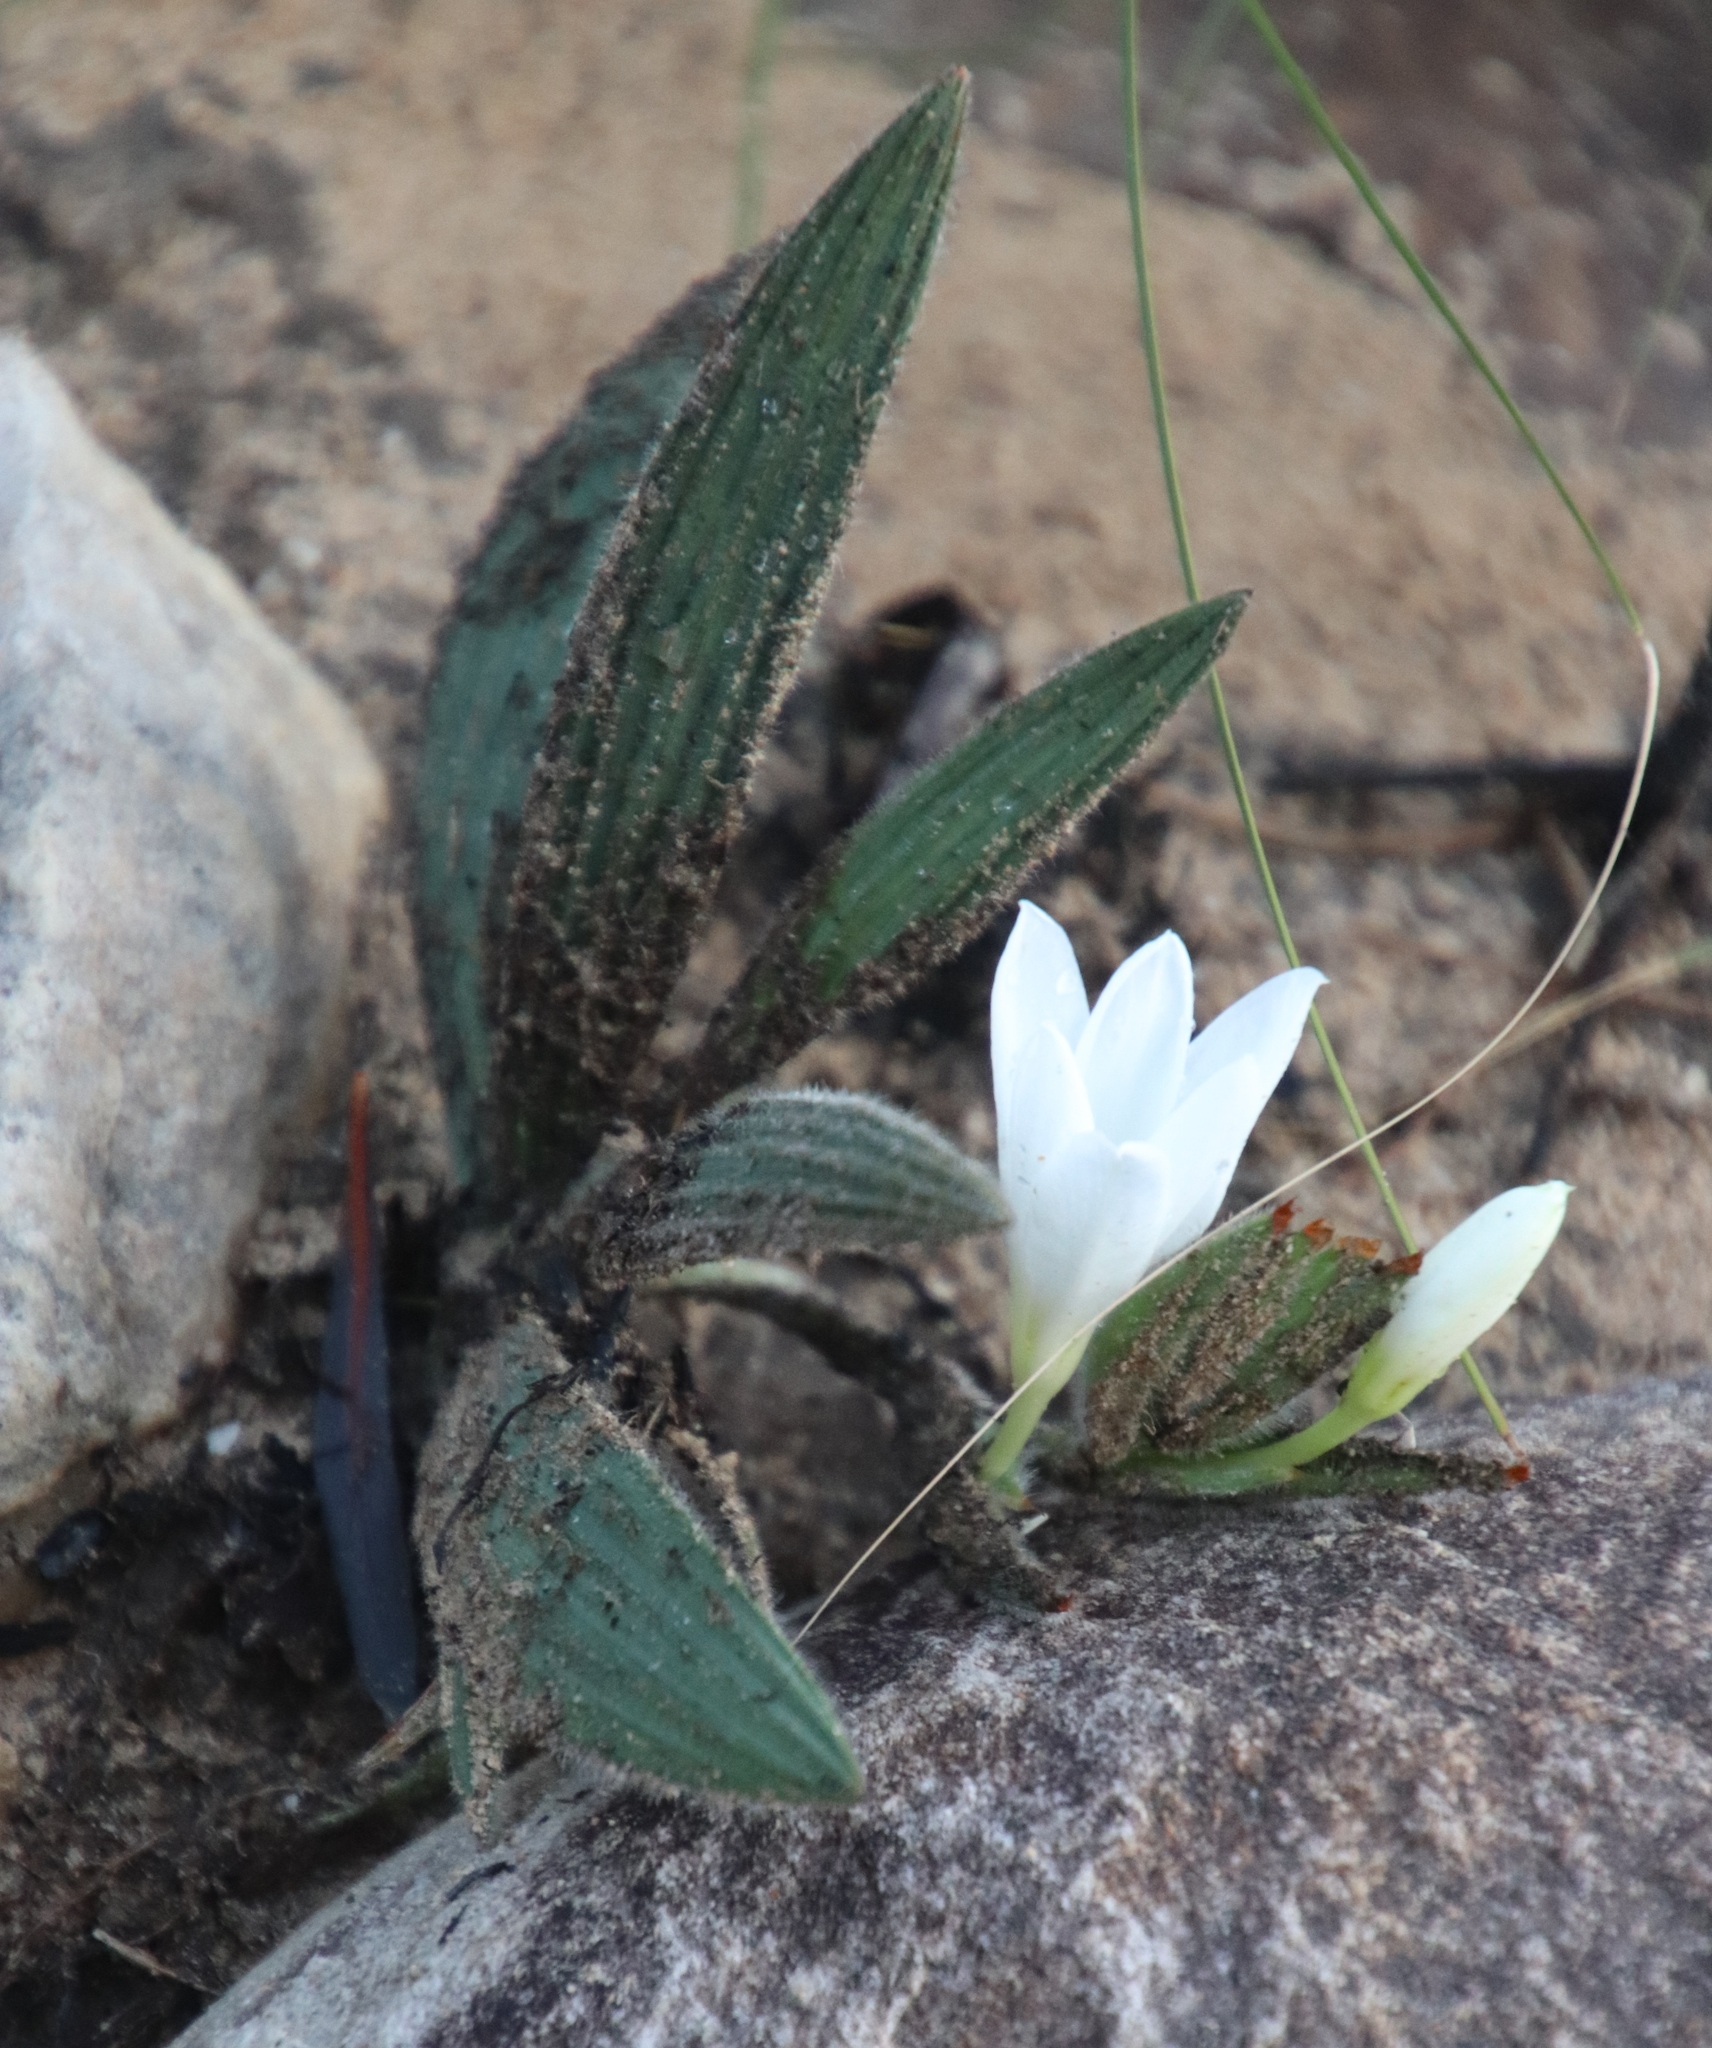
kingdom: Plantae
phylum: Tracheophyta
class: Liliopsida
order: Asparagales
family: Iridaceae
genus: Babiana
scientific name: Babiana villosula
